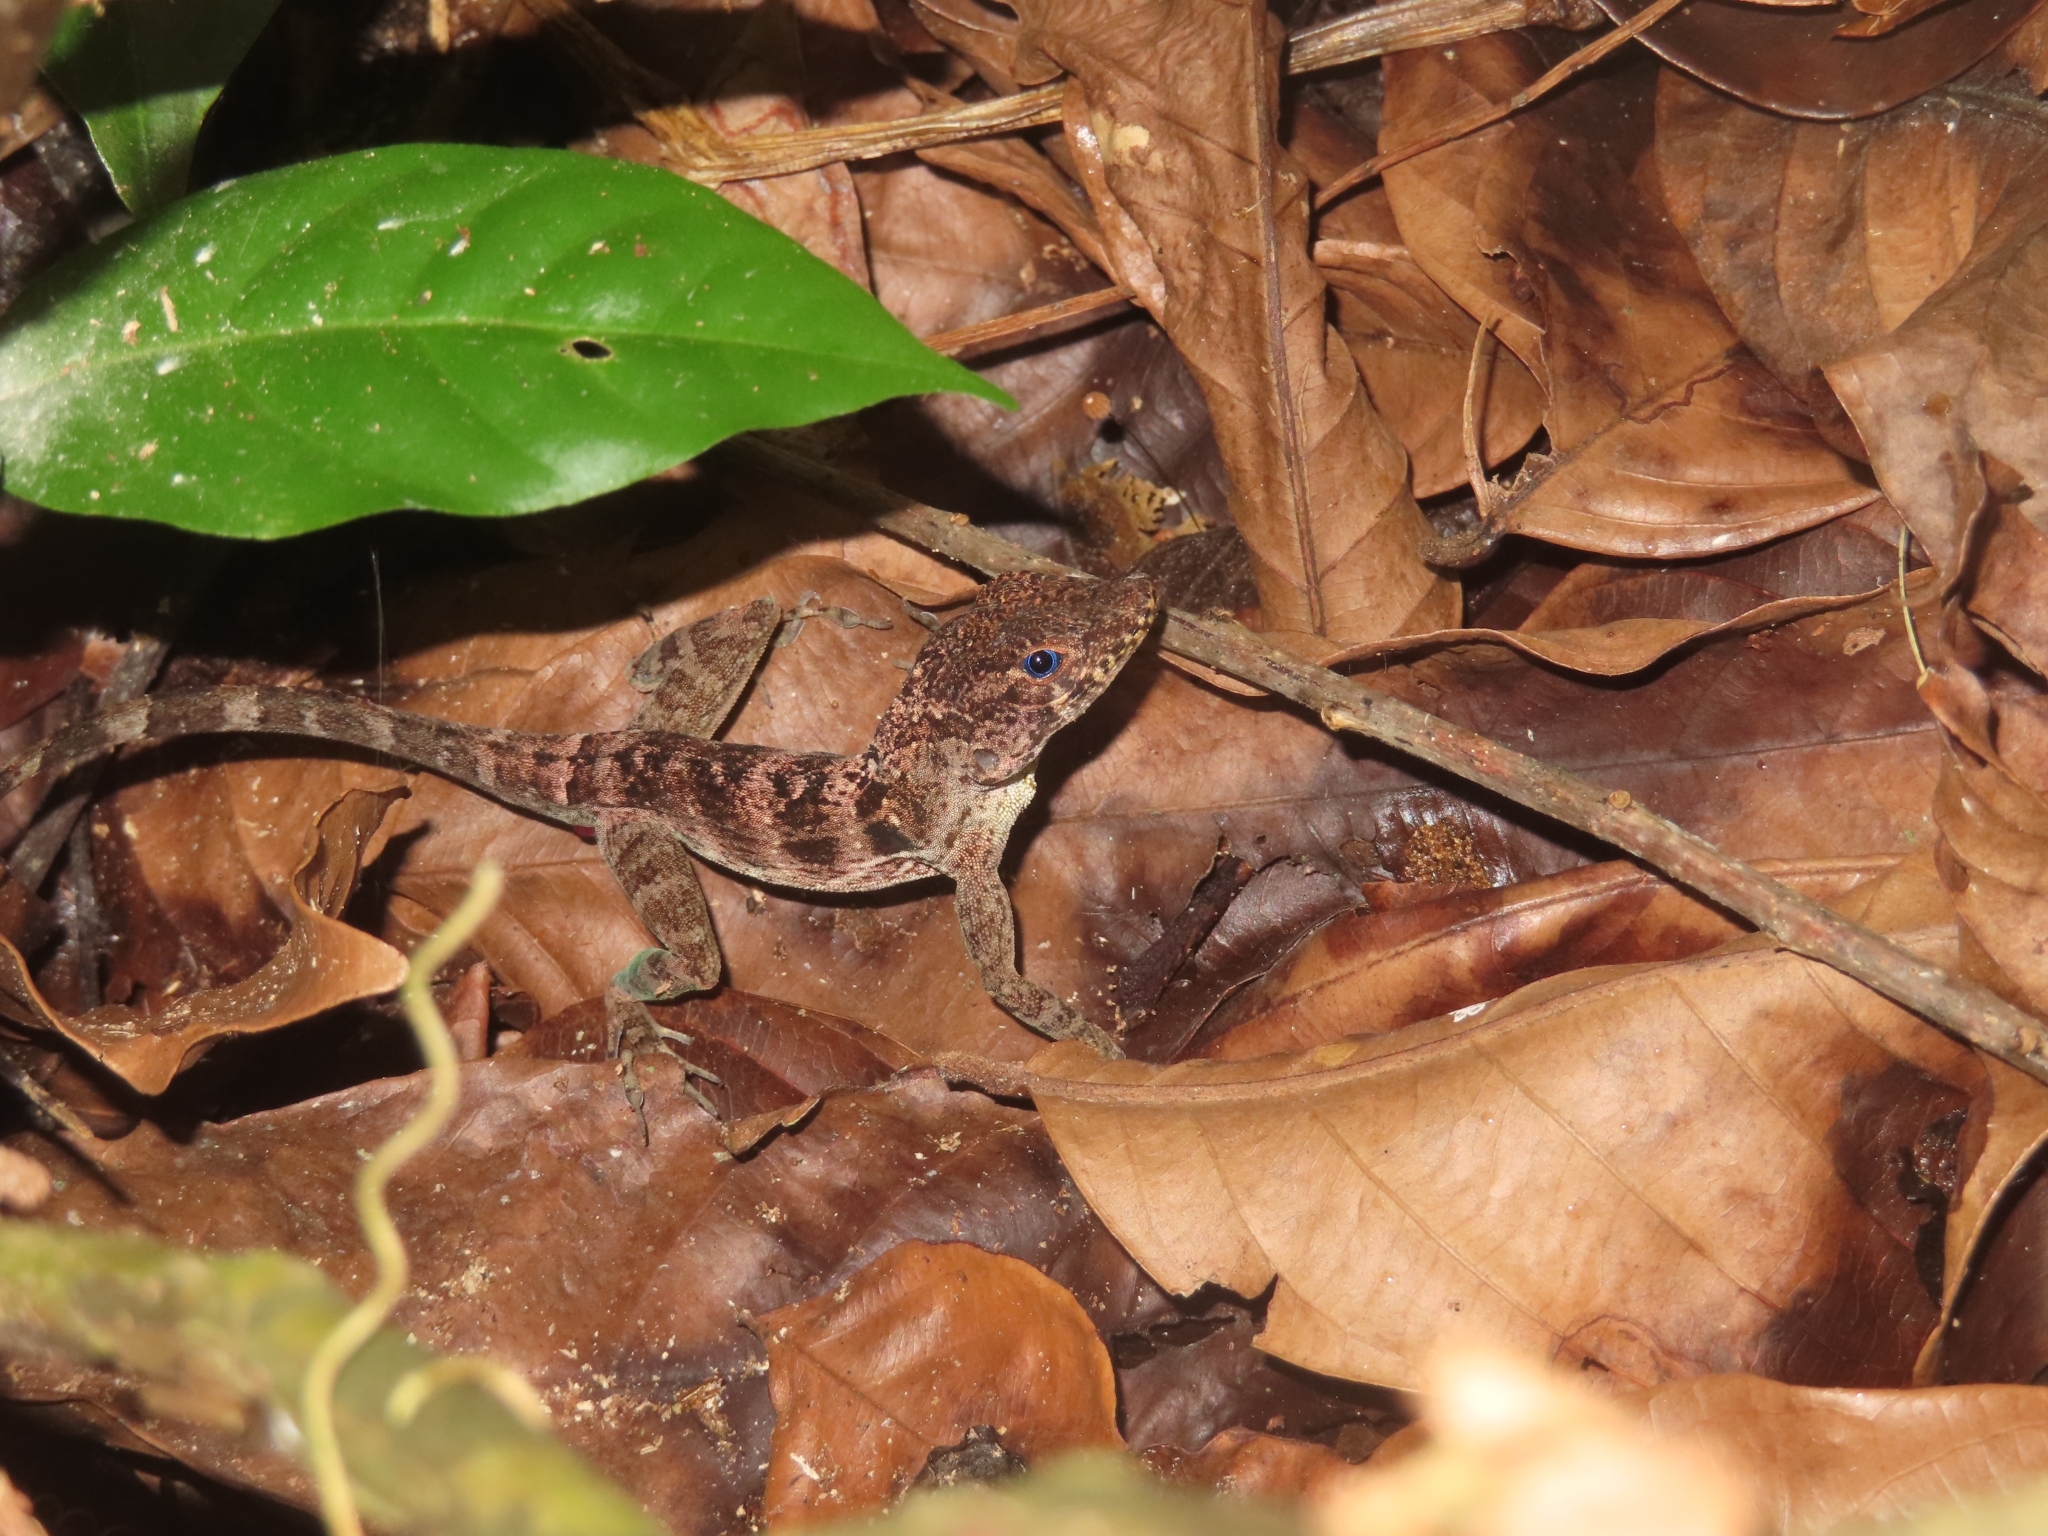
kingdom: Animalia
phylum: Chordata
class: Squamata
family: Dactyloidae
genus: Anolis
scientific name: Anolis gundlachi
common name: Gundlach’s anole
